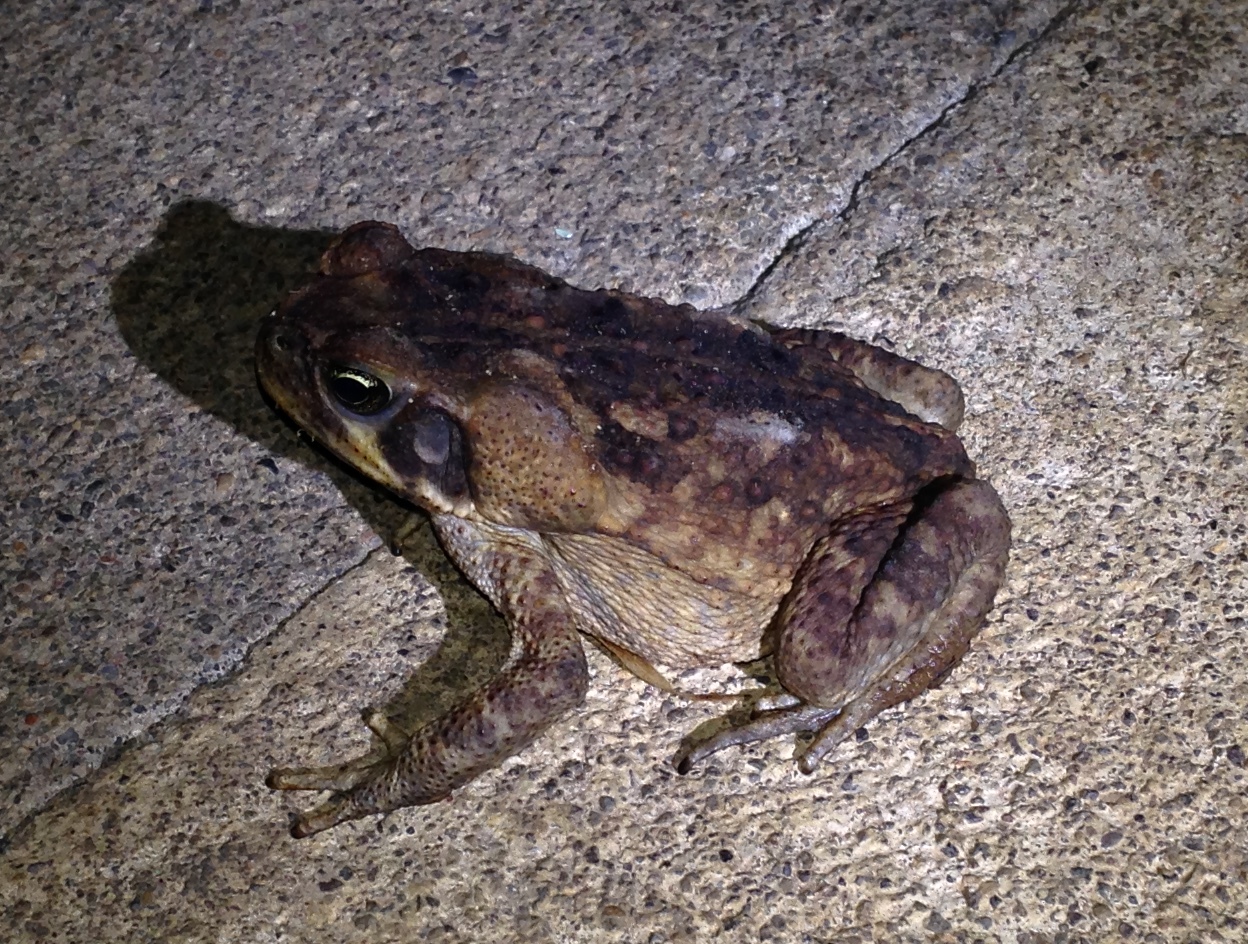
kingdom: Animalia
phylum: Chordata
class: Amphibia
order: Anura
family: Bufonidae
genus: Rhinella
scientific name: Rhinella horribilis
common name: Mesoamerican cane toad
